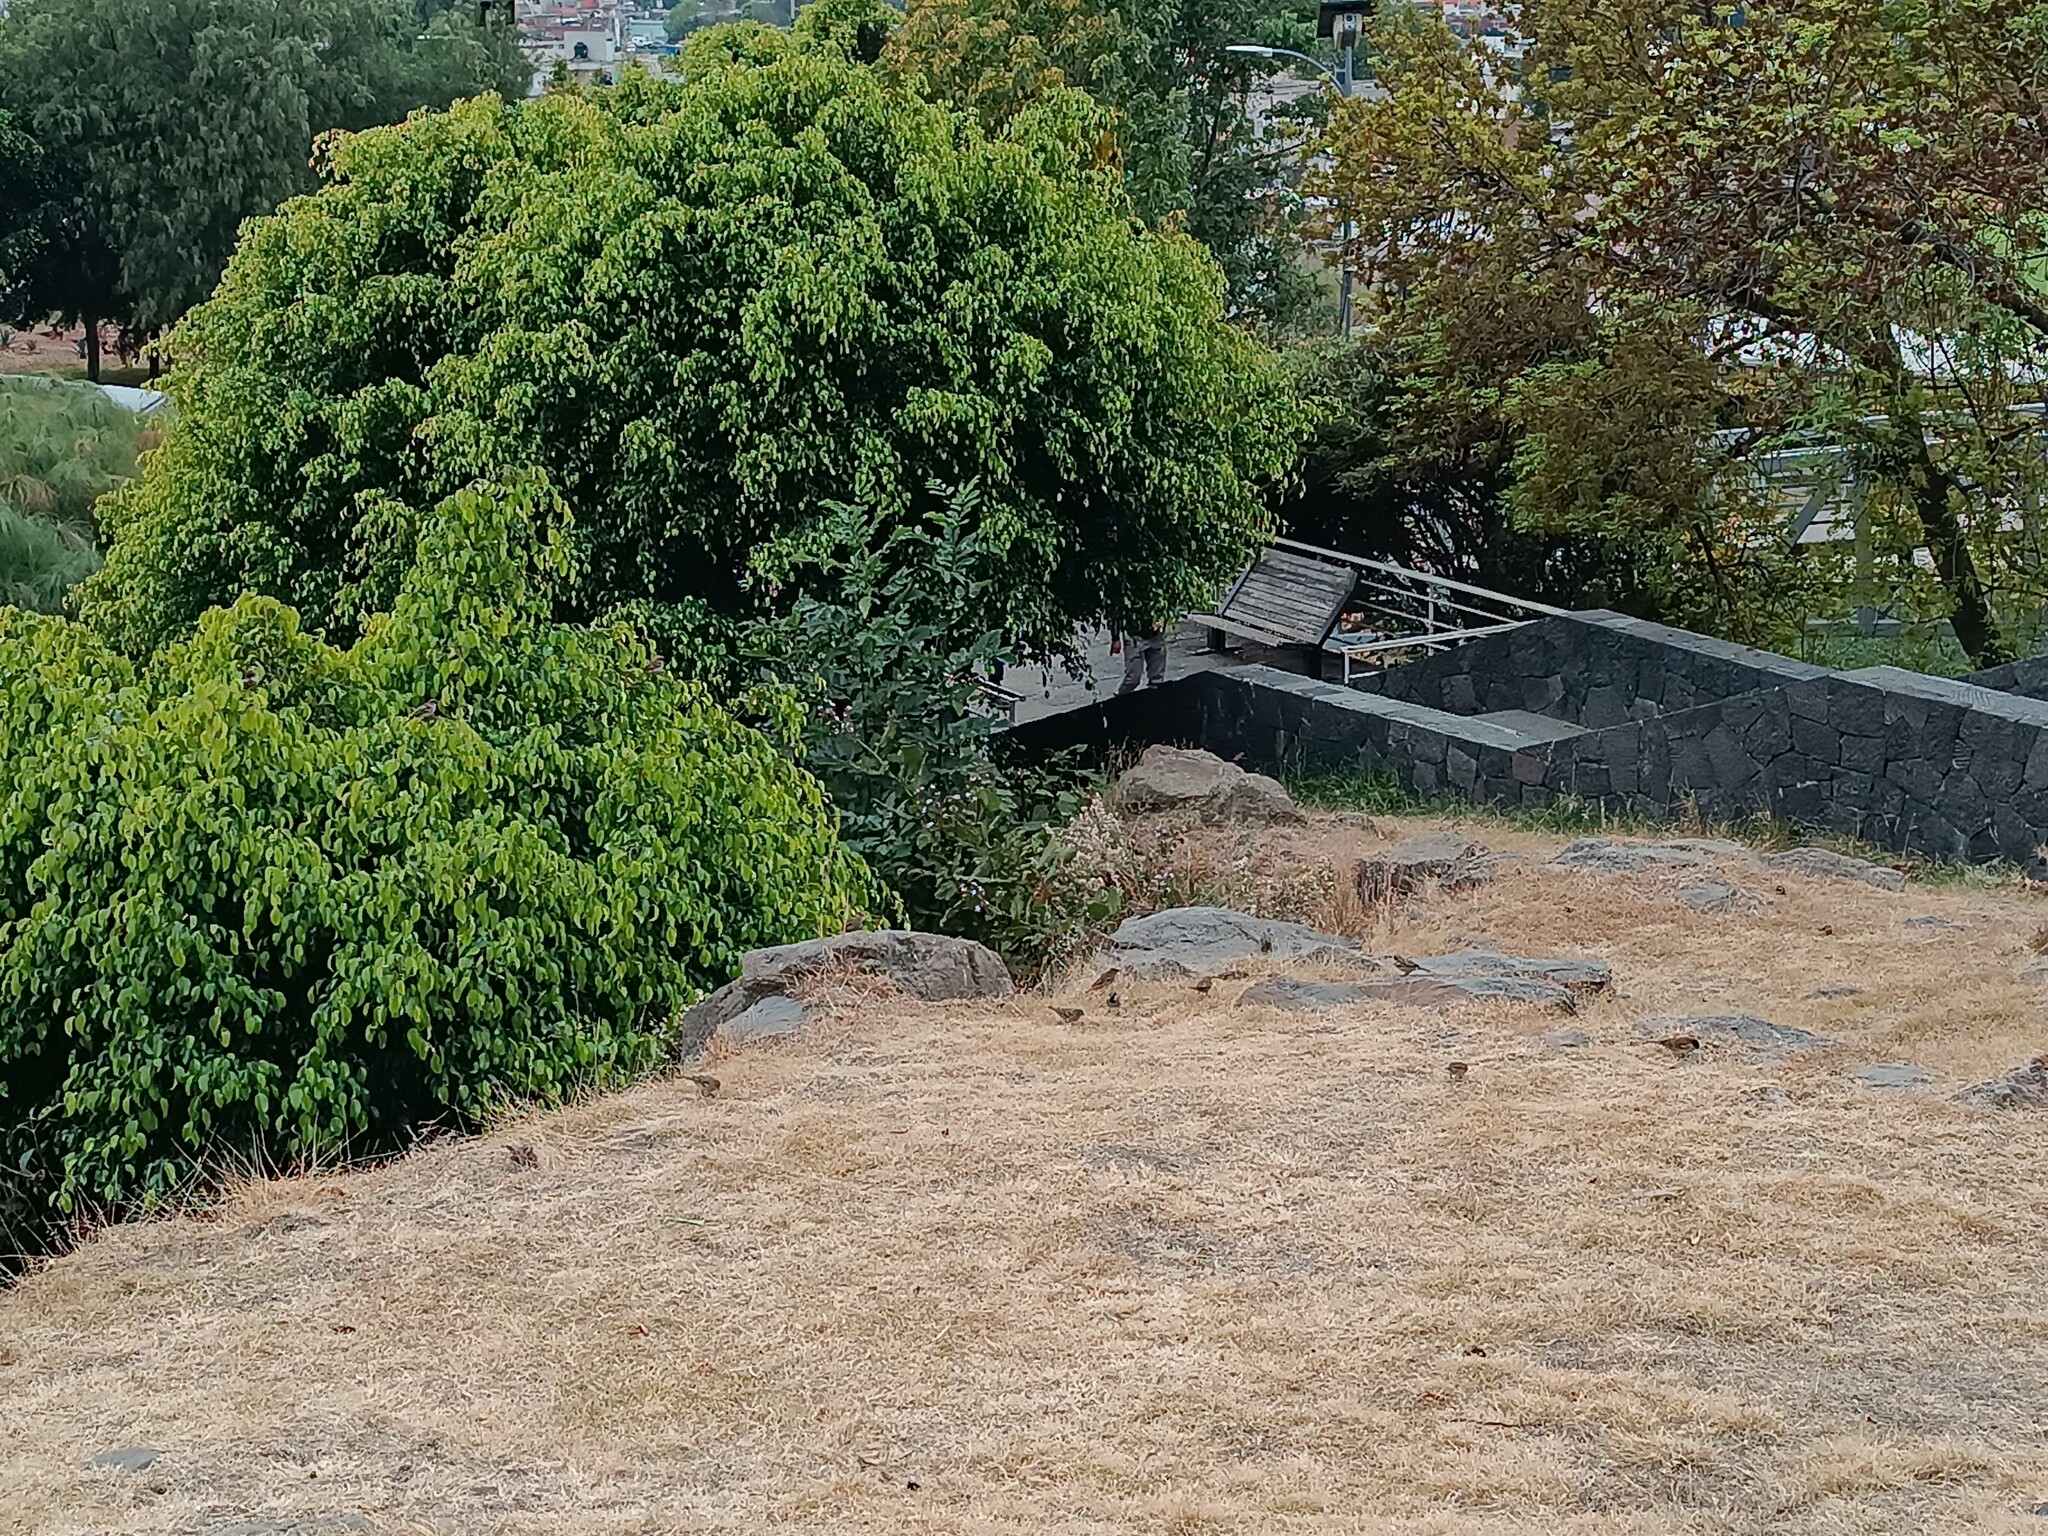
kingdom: Animalia
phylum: Chordata
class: Aves
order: Passeriformes
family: Passeridae
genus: Passer
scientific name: Passer domesticus
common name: House sparrow
